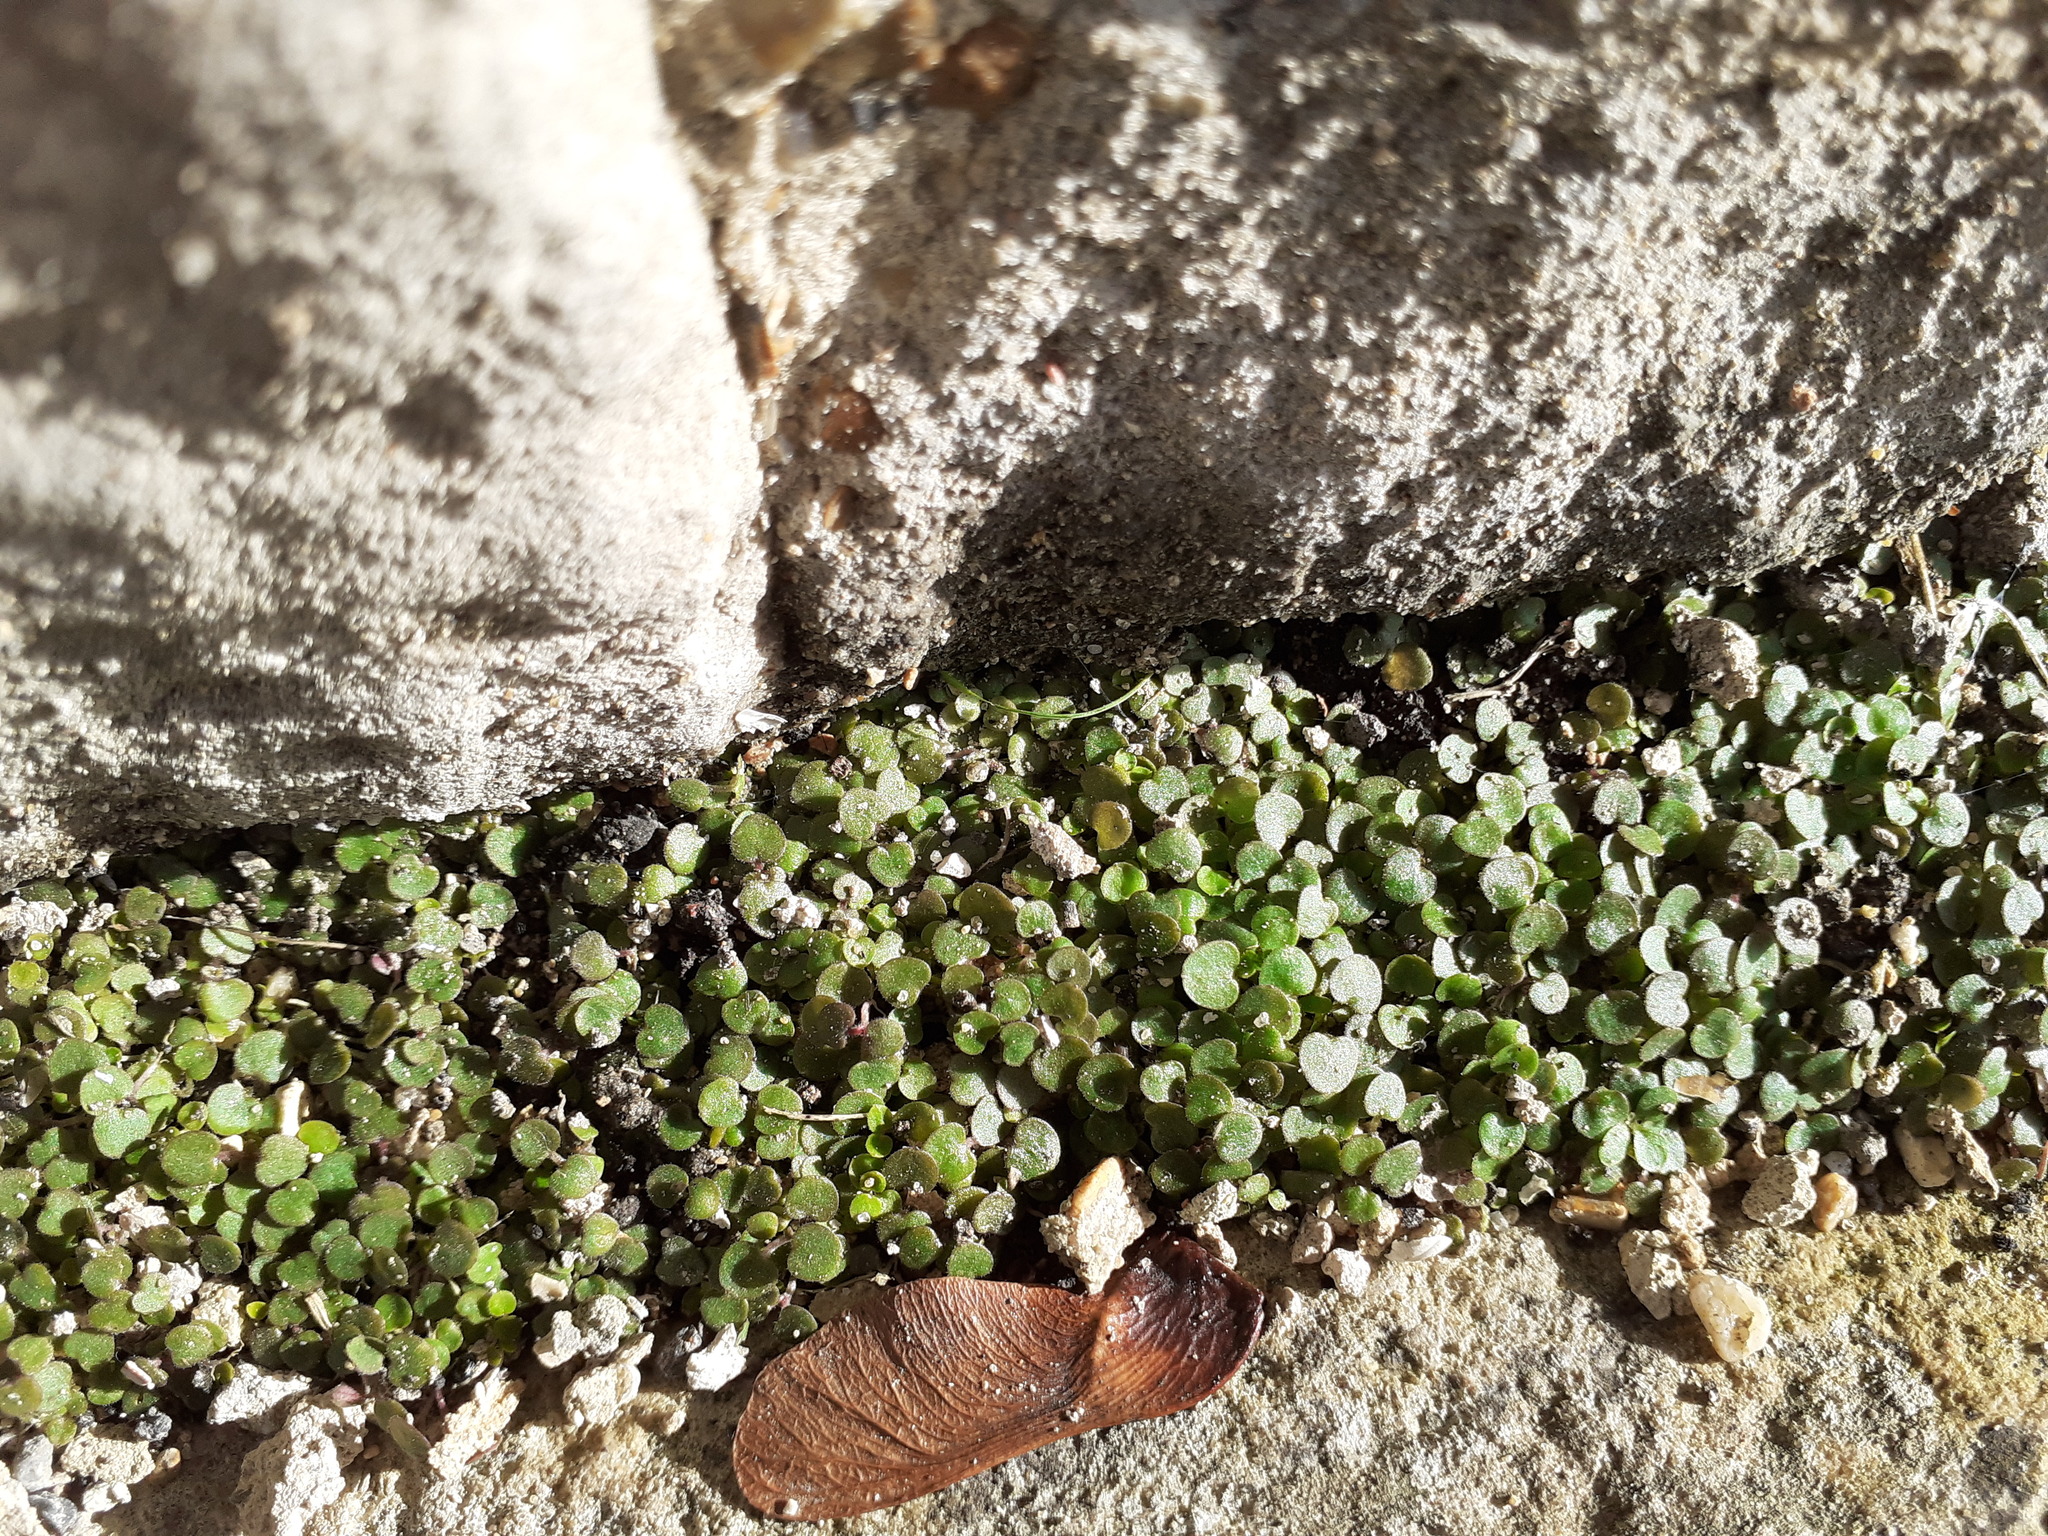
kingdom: Plantae
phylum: Tracheophyta
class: Magnoliopsida
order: Rosales
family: Urticaceae
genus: Soleirolia
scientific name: Soleirolia soleirolii
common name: Mind-your-own-business
